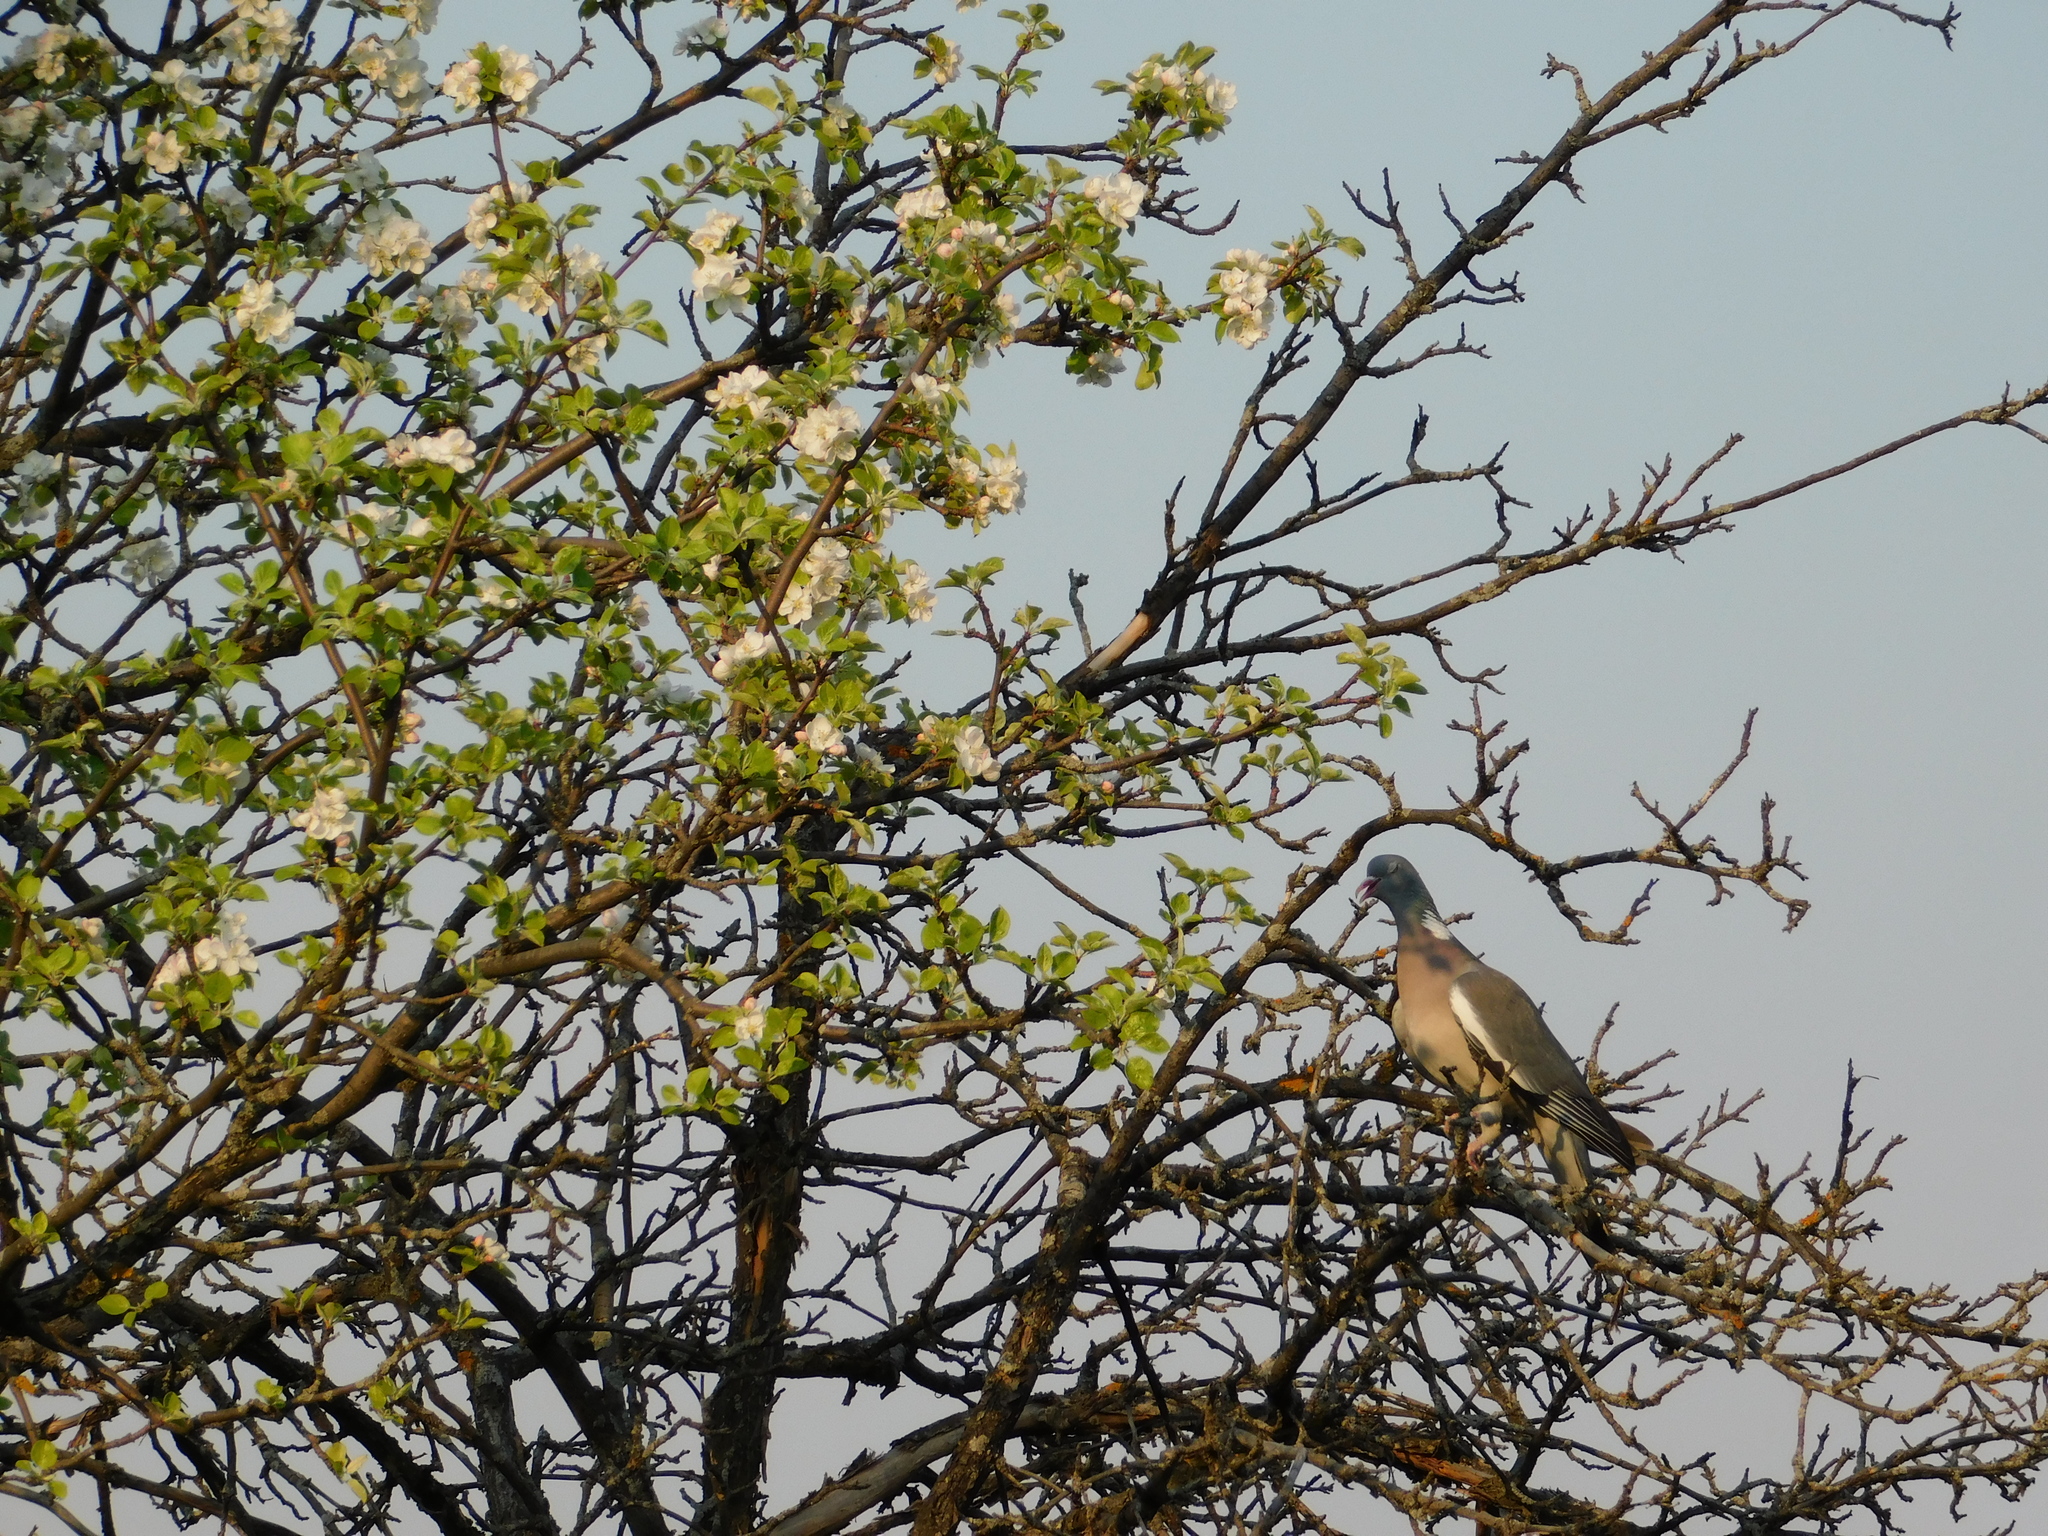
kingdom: Animalia
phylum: Chordata
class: Aves
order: Columbiformes
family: Columbidae
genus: Columba
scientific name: Columba palumbus
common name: Common wood pigeon
